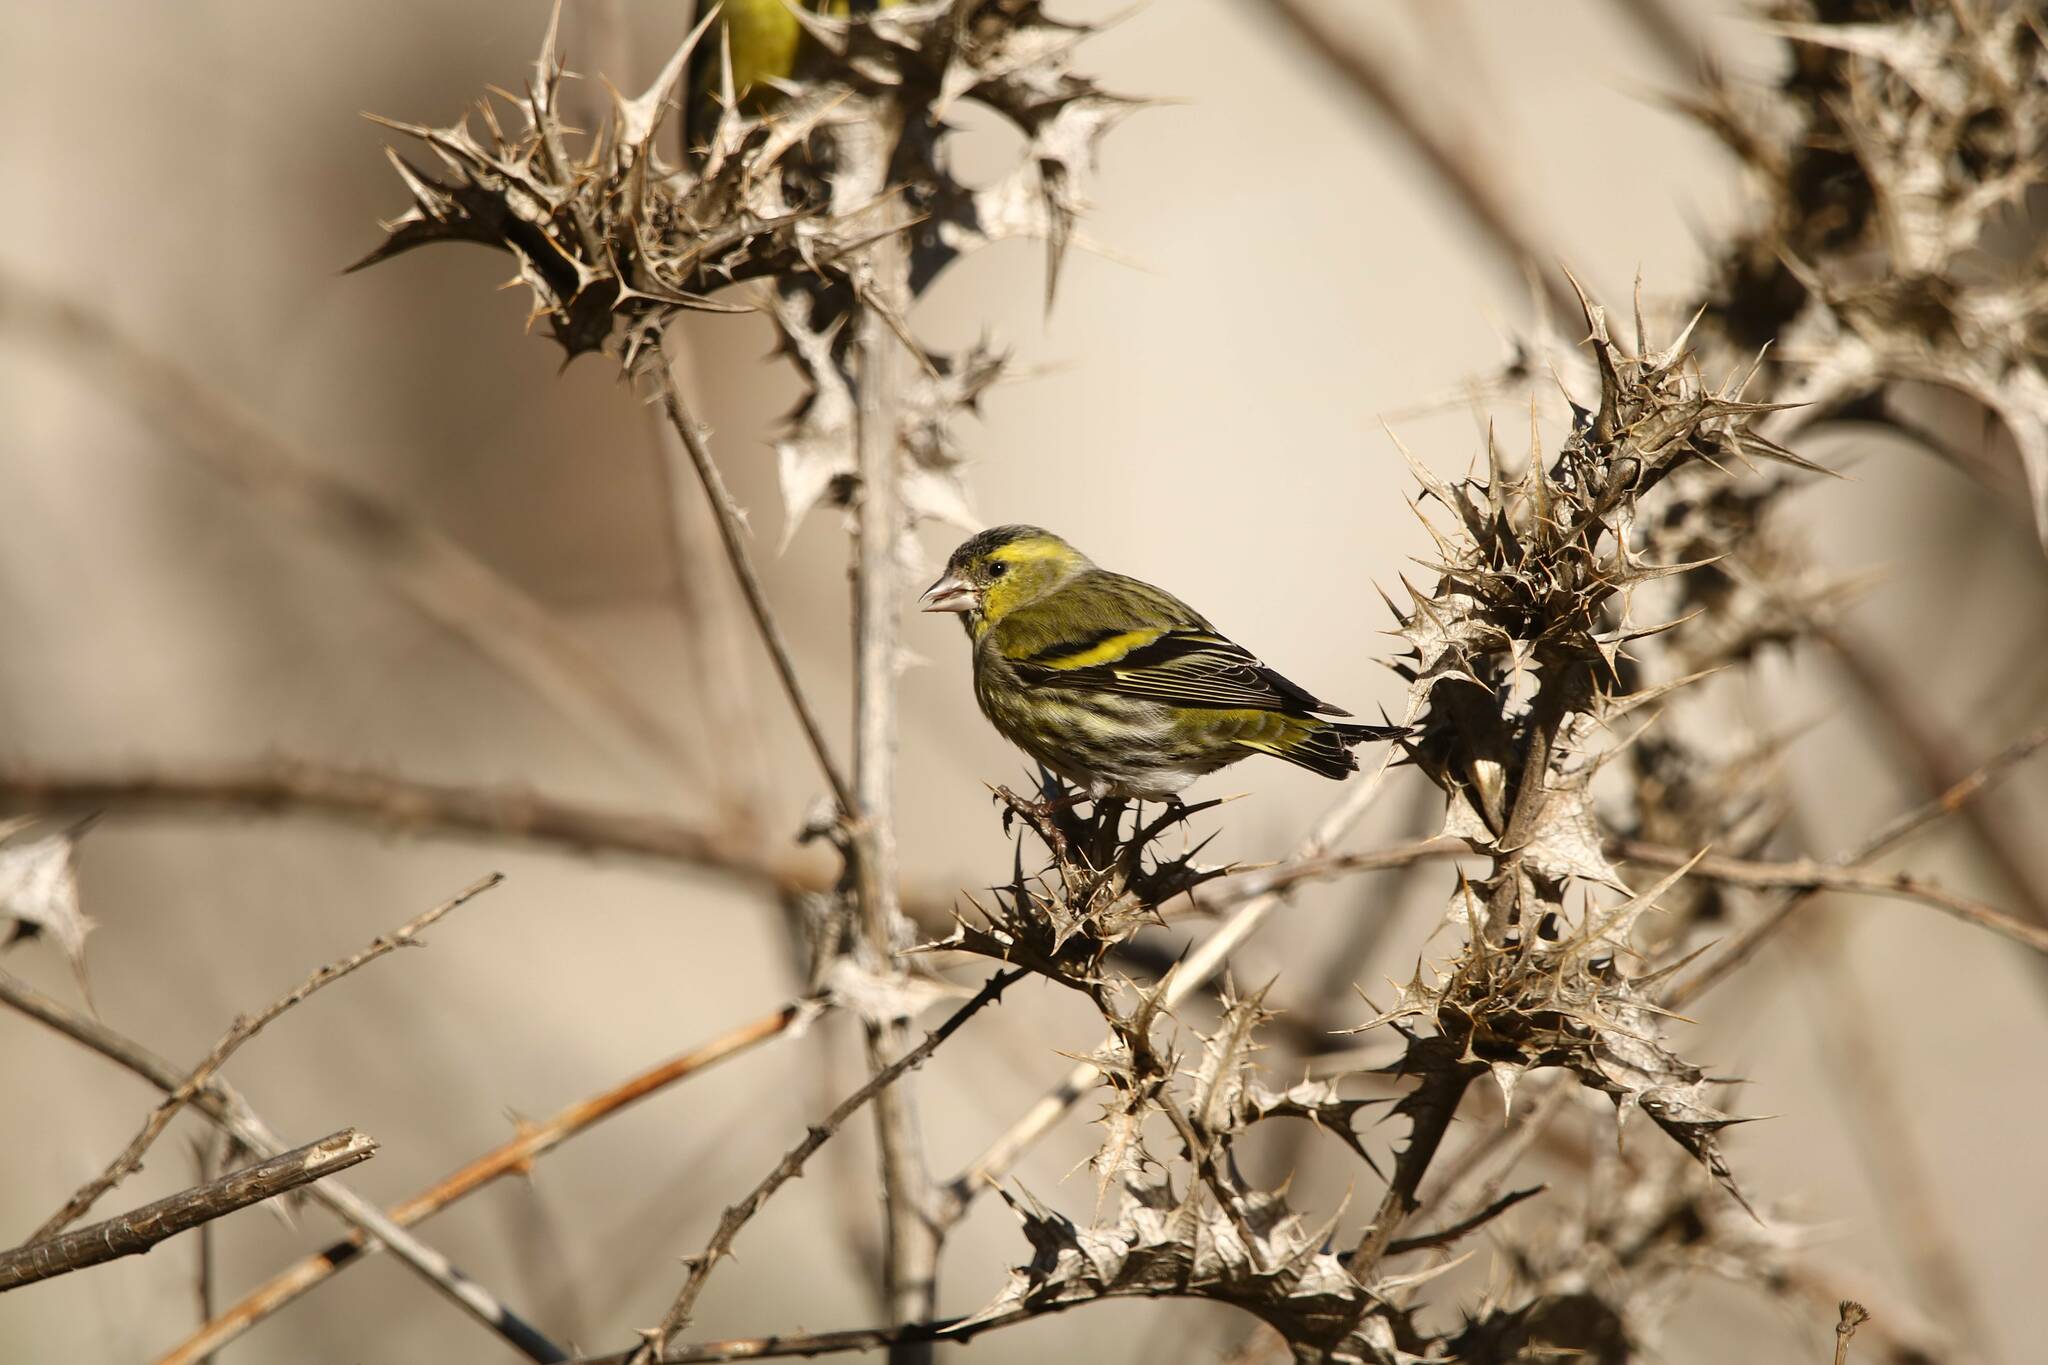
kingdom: Animalia
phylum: Chordata
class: Aves
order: Passeriformes
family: Fringillidae
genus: Spinus
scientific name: Spinus spinus
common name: Eurasian siskin
